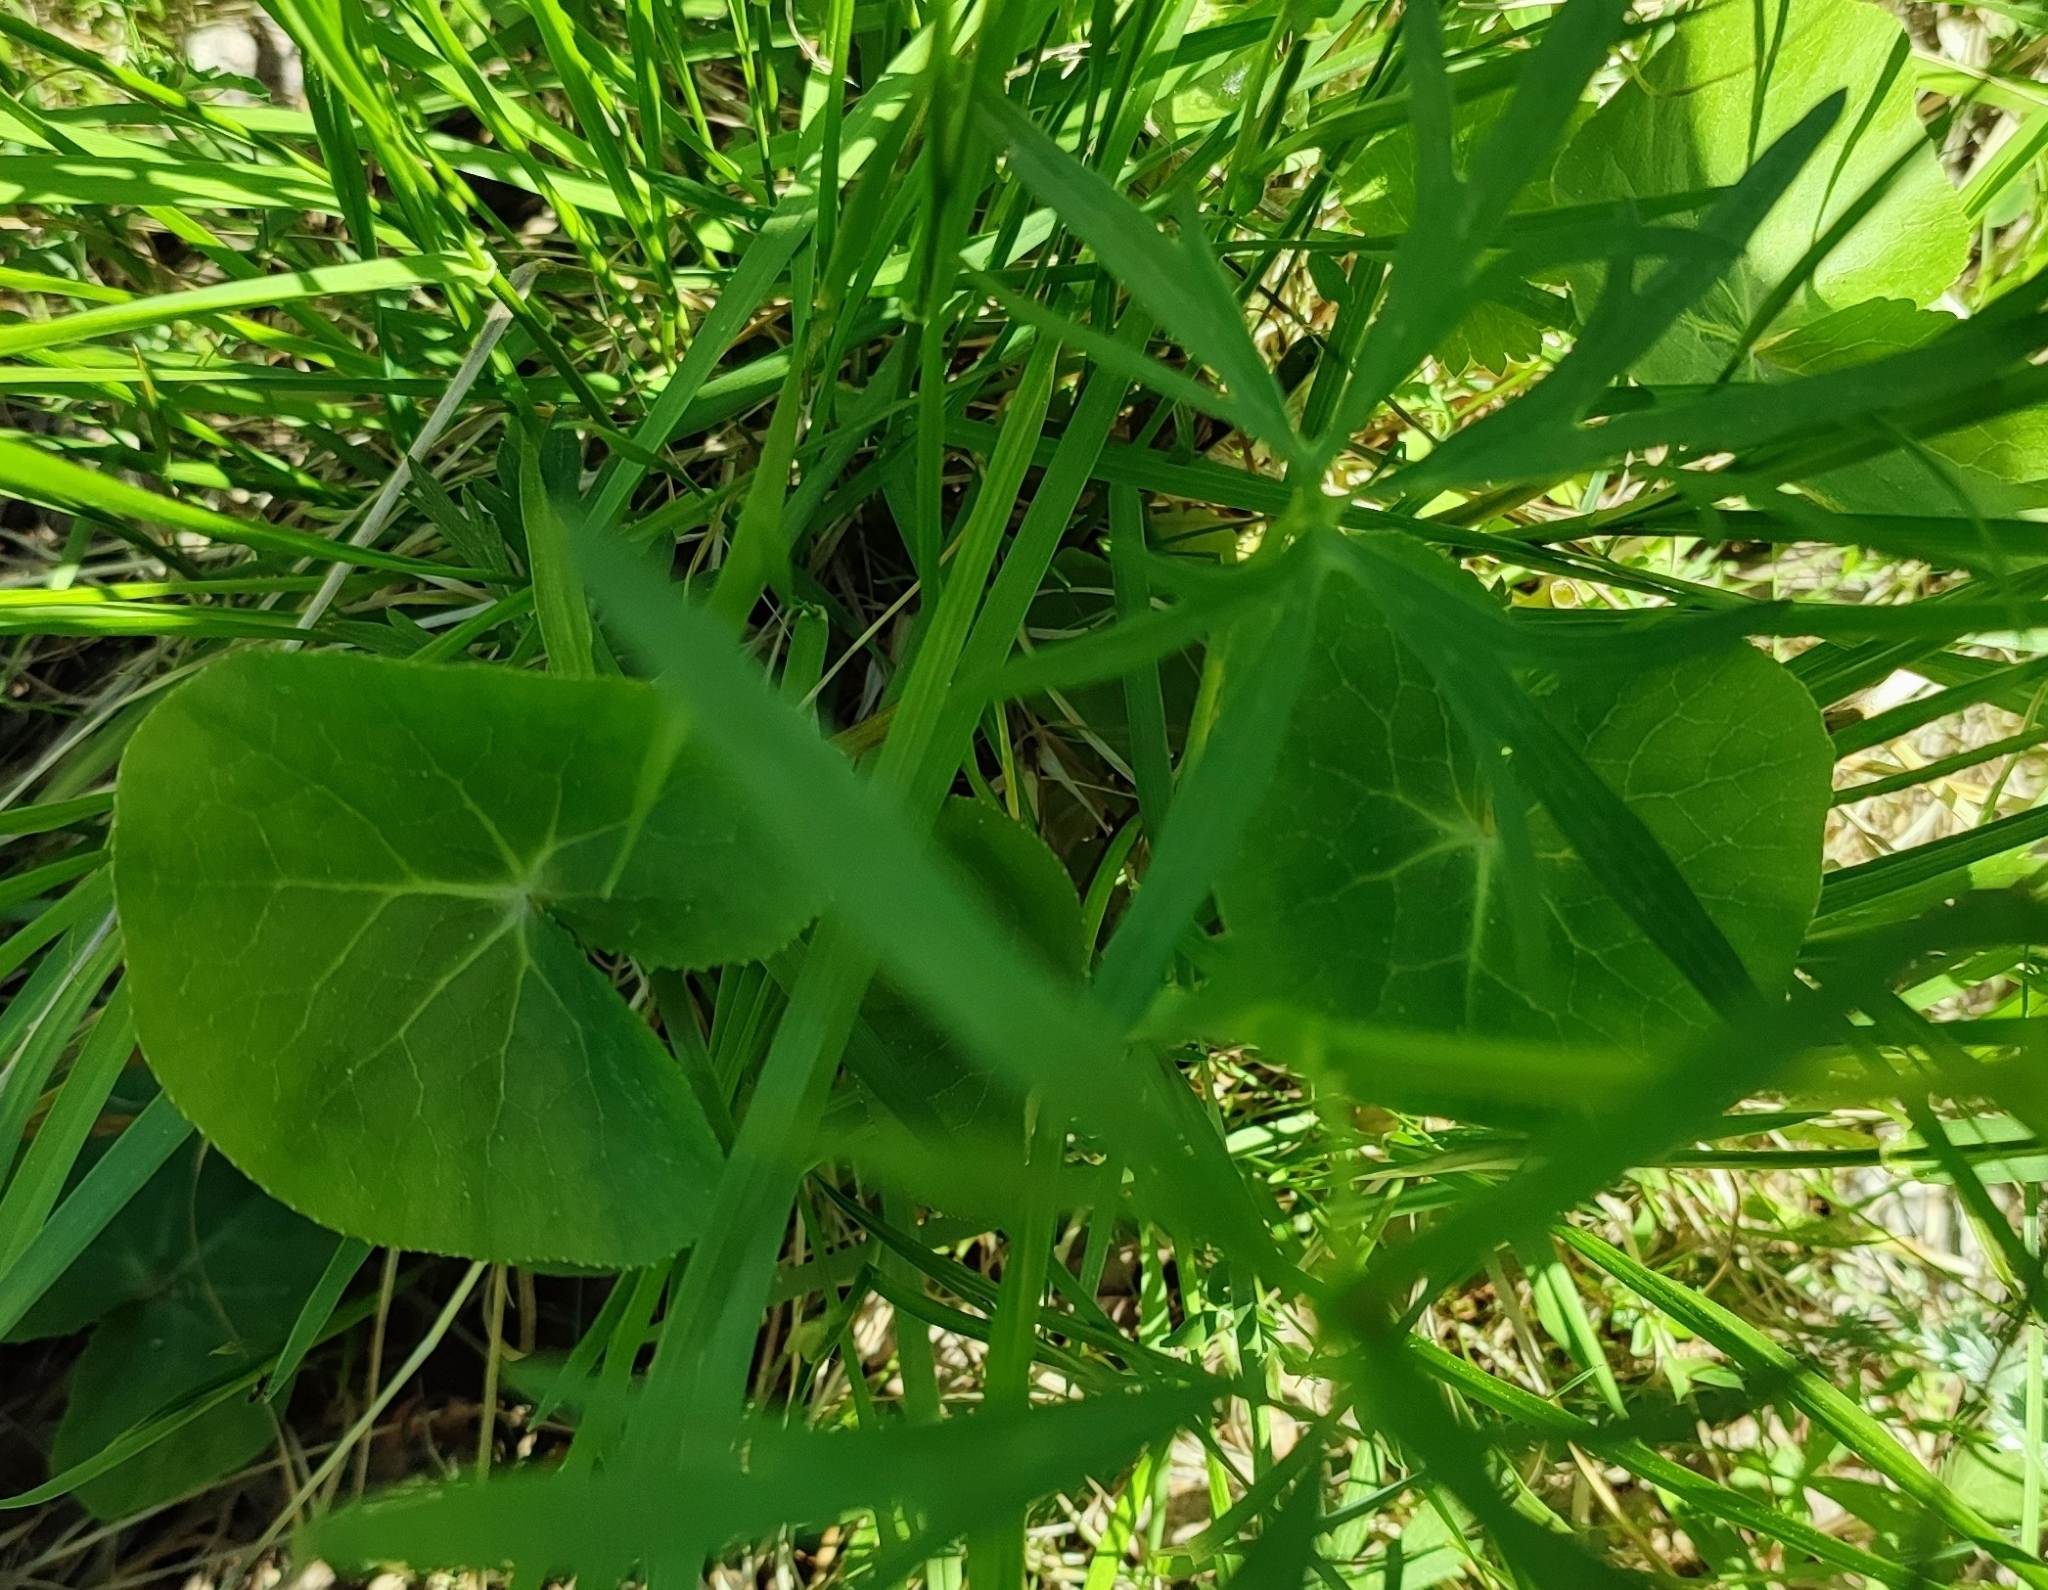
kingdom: Plantae
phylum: Tracheophyta
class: Magnoliopsida
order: Ranunculales
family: Ranunculaceae
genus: Caltha
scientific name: Caltha palustris
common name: Marsh marigold
